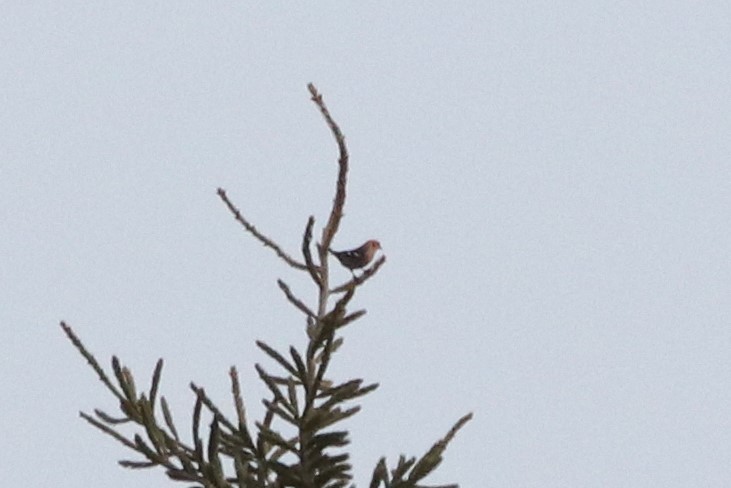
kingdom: Animalia
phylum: Chordata
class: Aves
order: Passeriformes
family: Fringillidae
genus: Loxia
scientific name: Loxia leucoptera
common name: Two-barred crossbill
